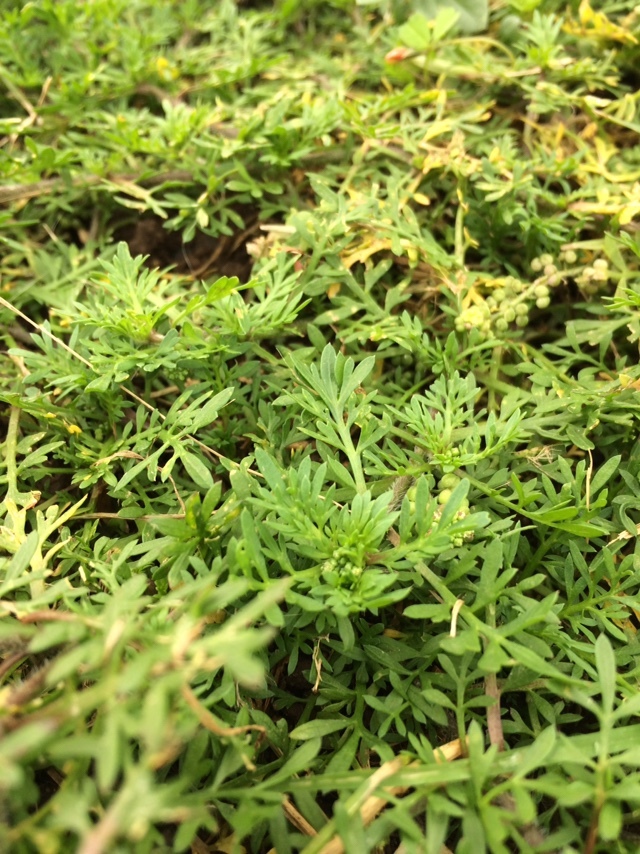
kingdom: Plantae
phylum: Tracheophyta
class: Magnoliopsida
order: Brassicales
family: Brassicaceae
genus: Lepidium
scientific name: Lepidium didymum
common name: Lesser swinecress
